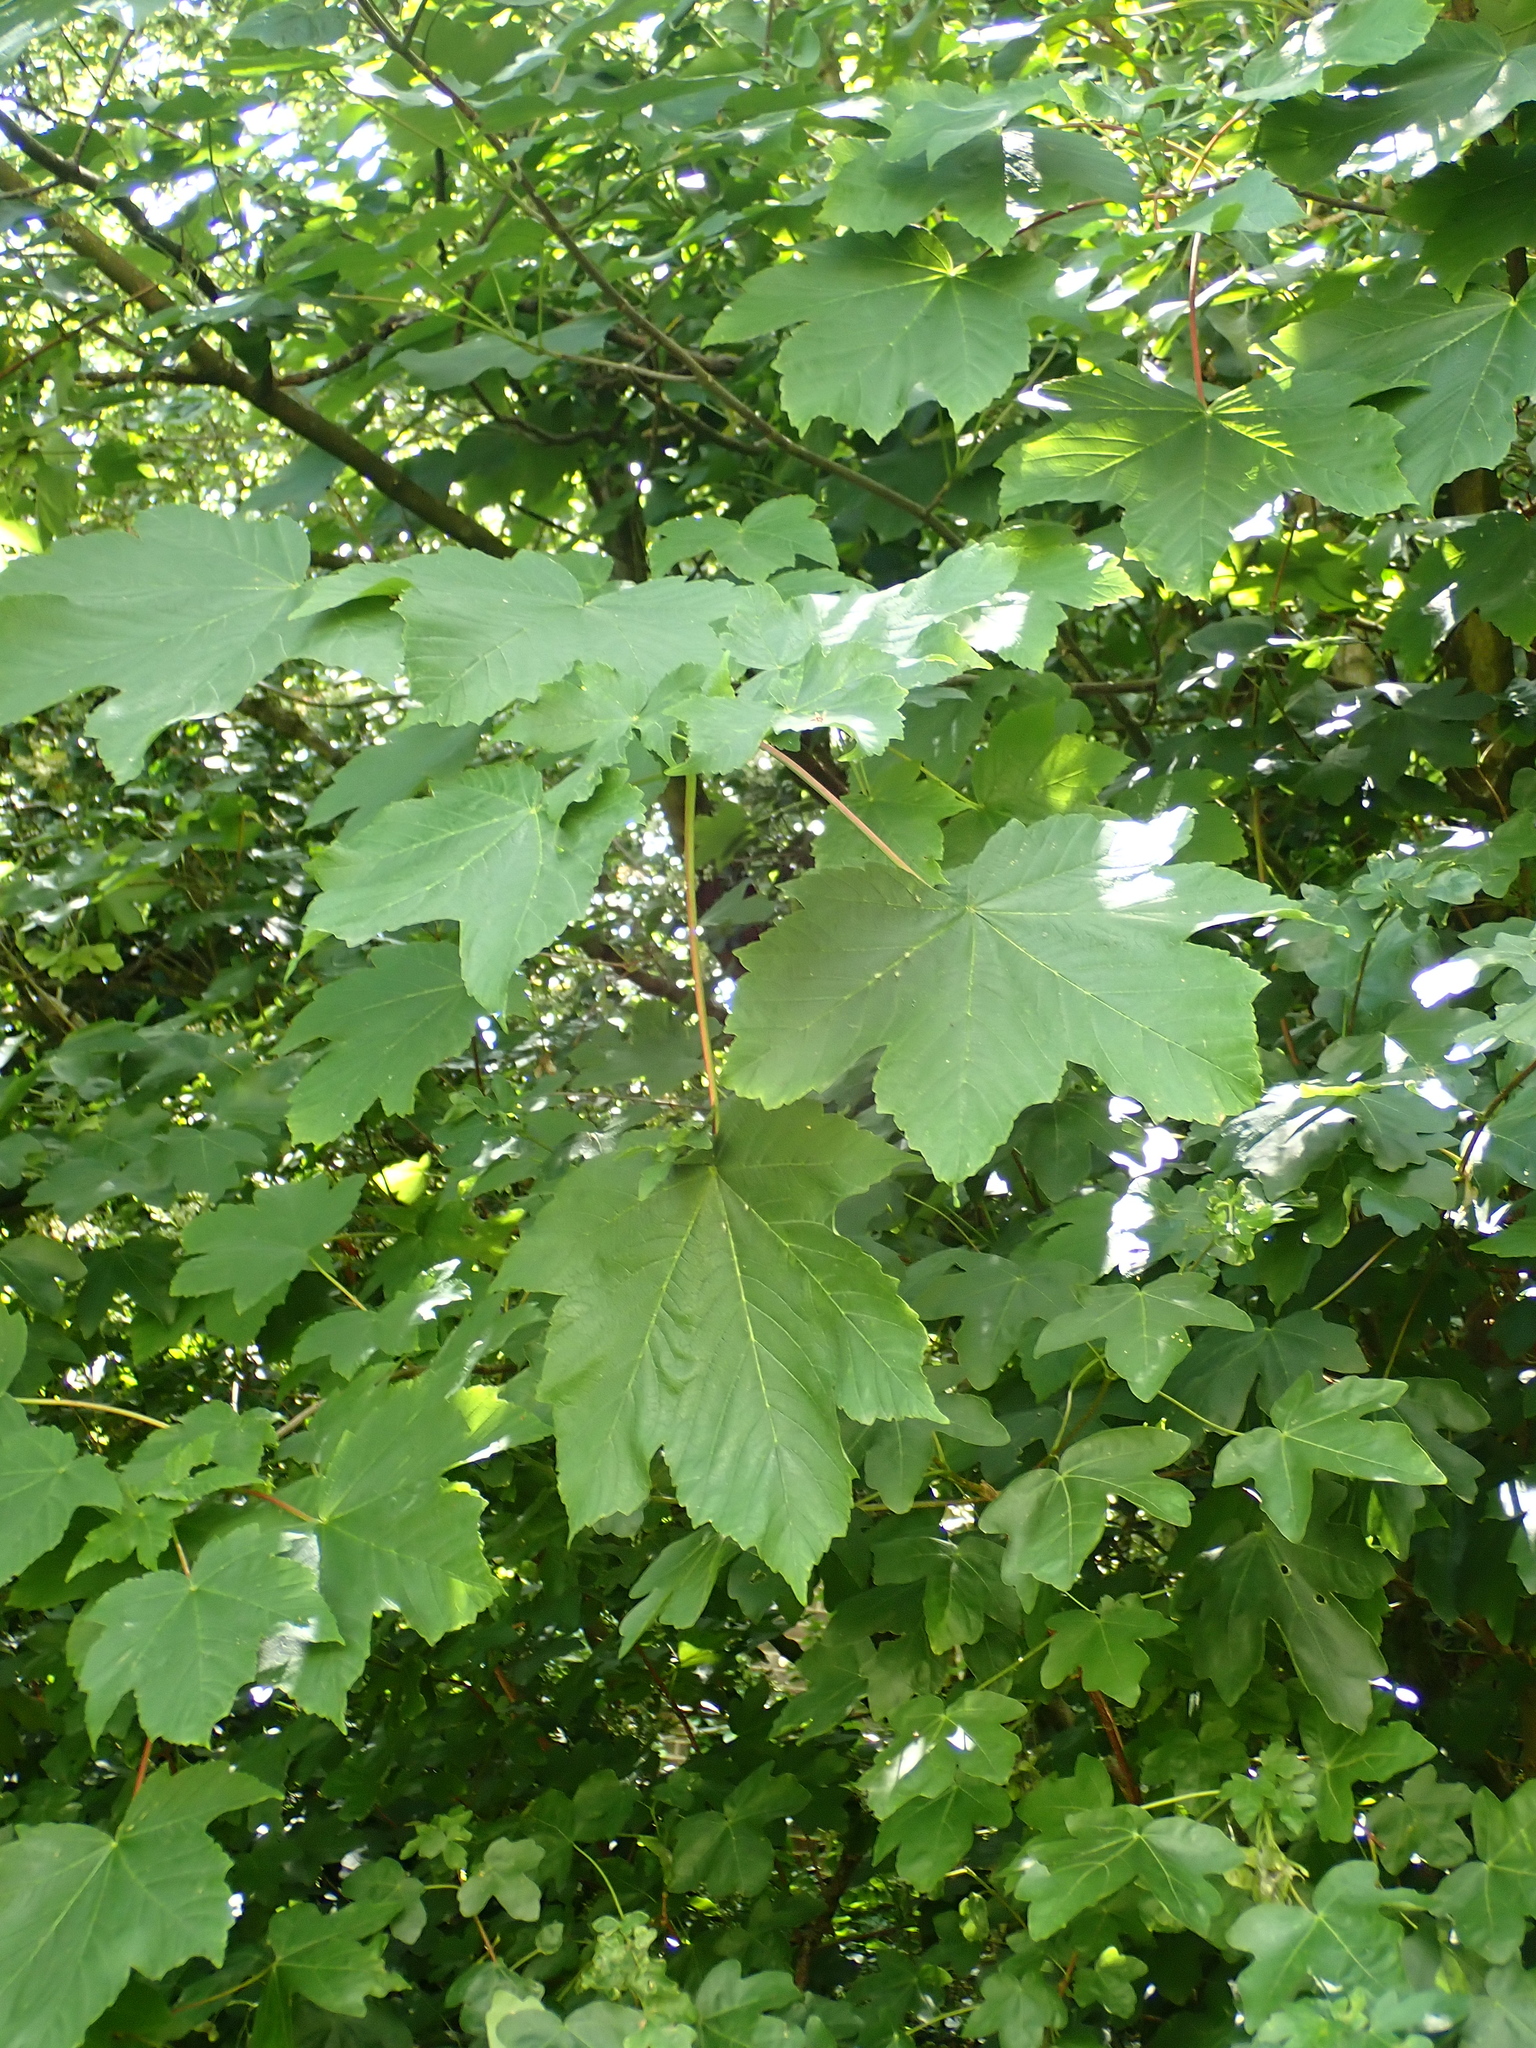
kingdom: Plantae
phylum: Tracheophyta
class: Magnoliopsida
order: Sapindales
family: Sapindaceae
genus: Acer
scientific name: Acer pseudoplatanus
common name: Sycamore
